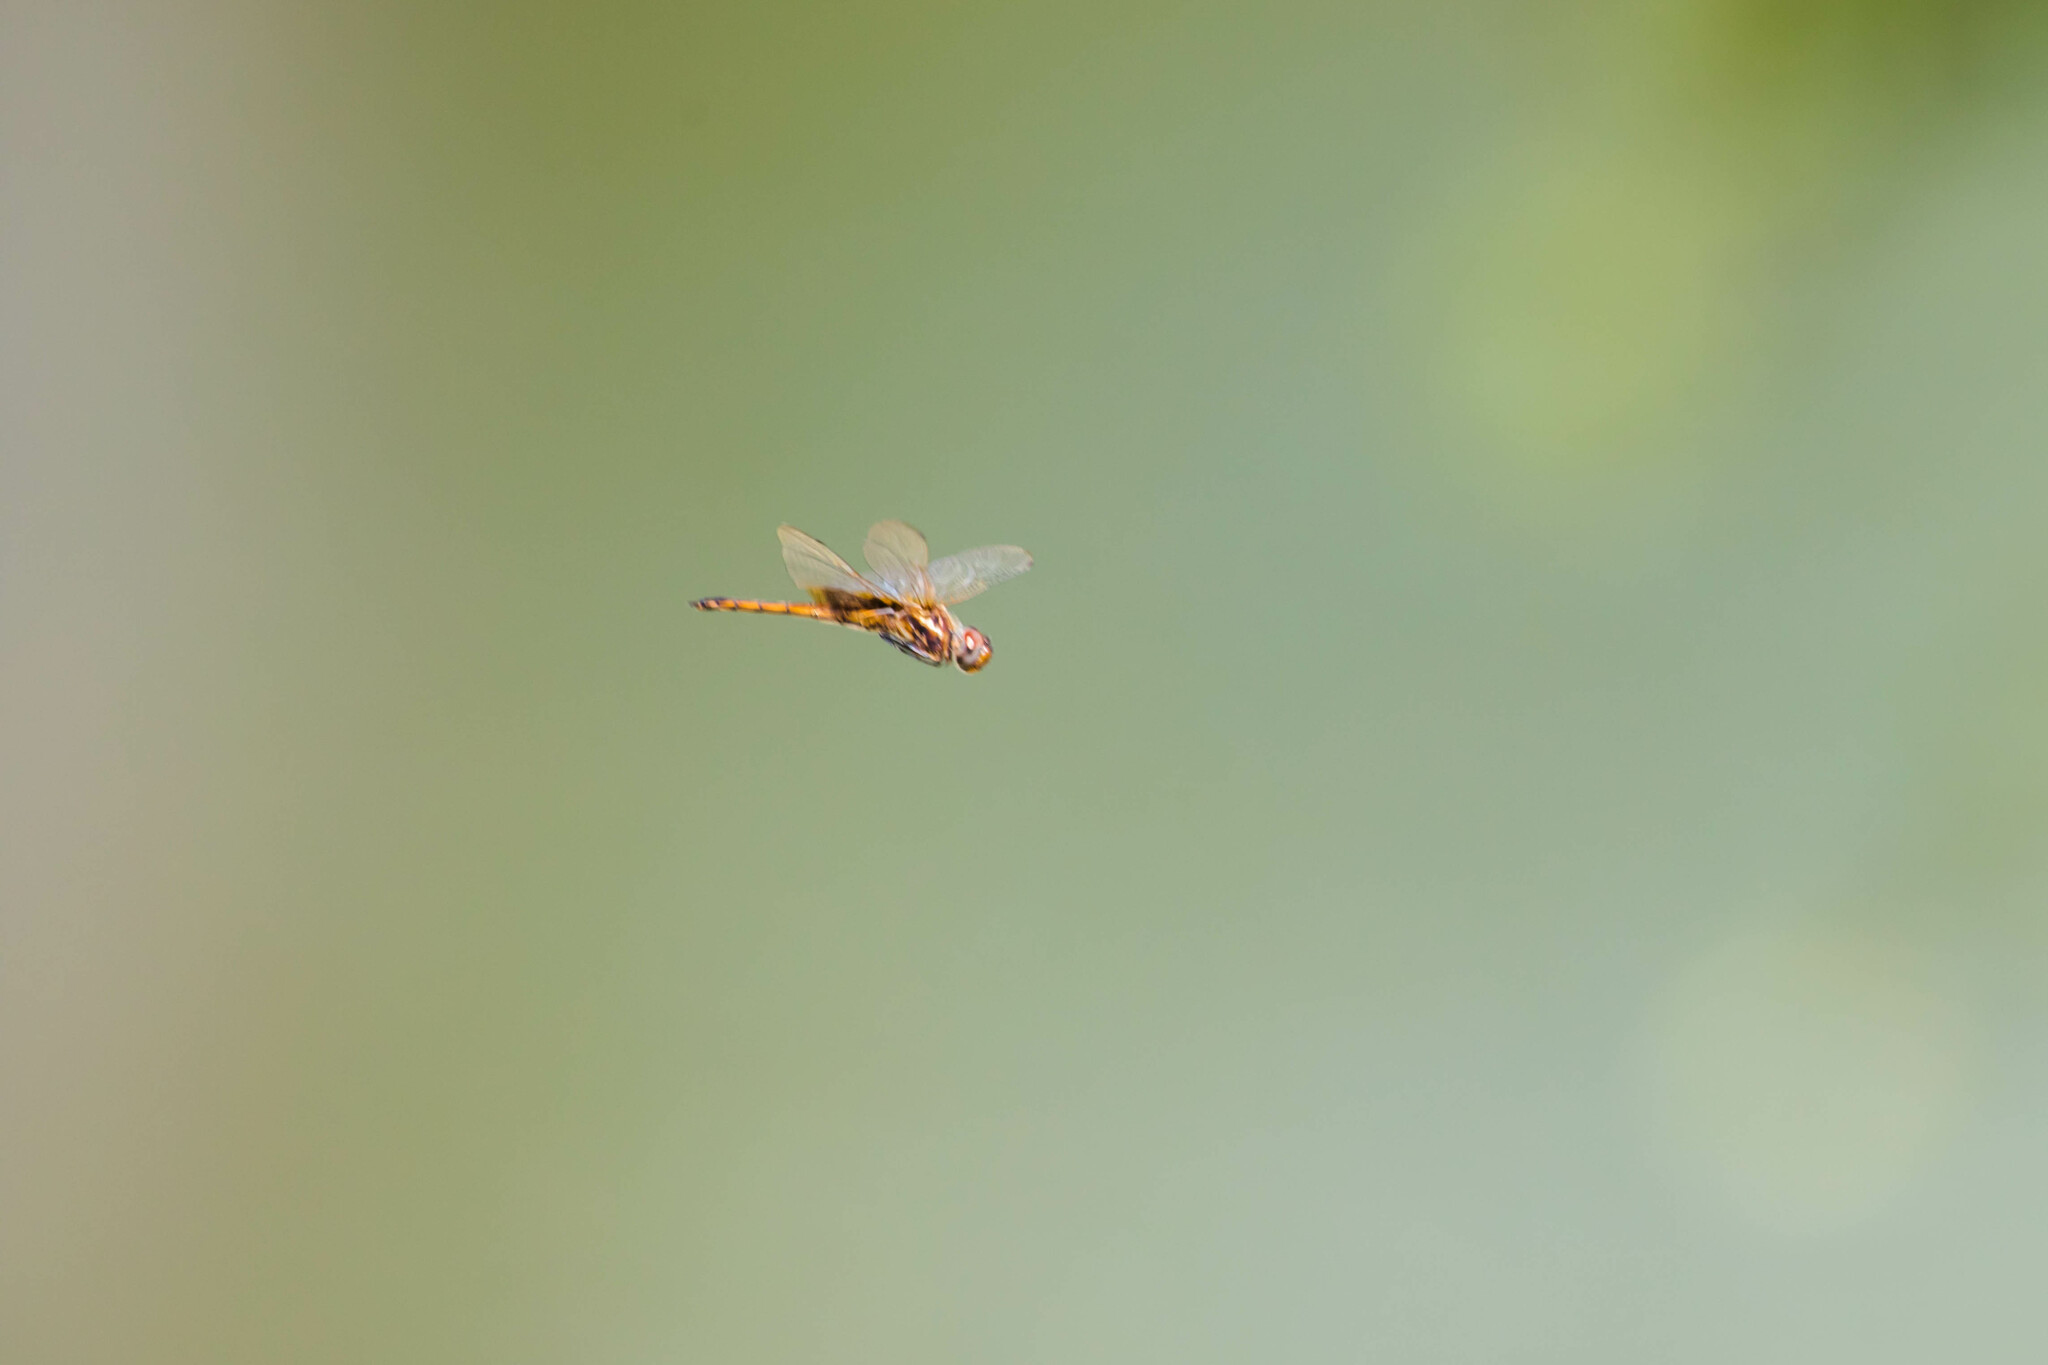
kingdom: Animalia
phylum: Arthropoda
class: Insecta
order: Odonata
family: Libellulidae
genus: Miathyria
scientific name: Miathyria marcella
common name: Hyacinth glider
